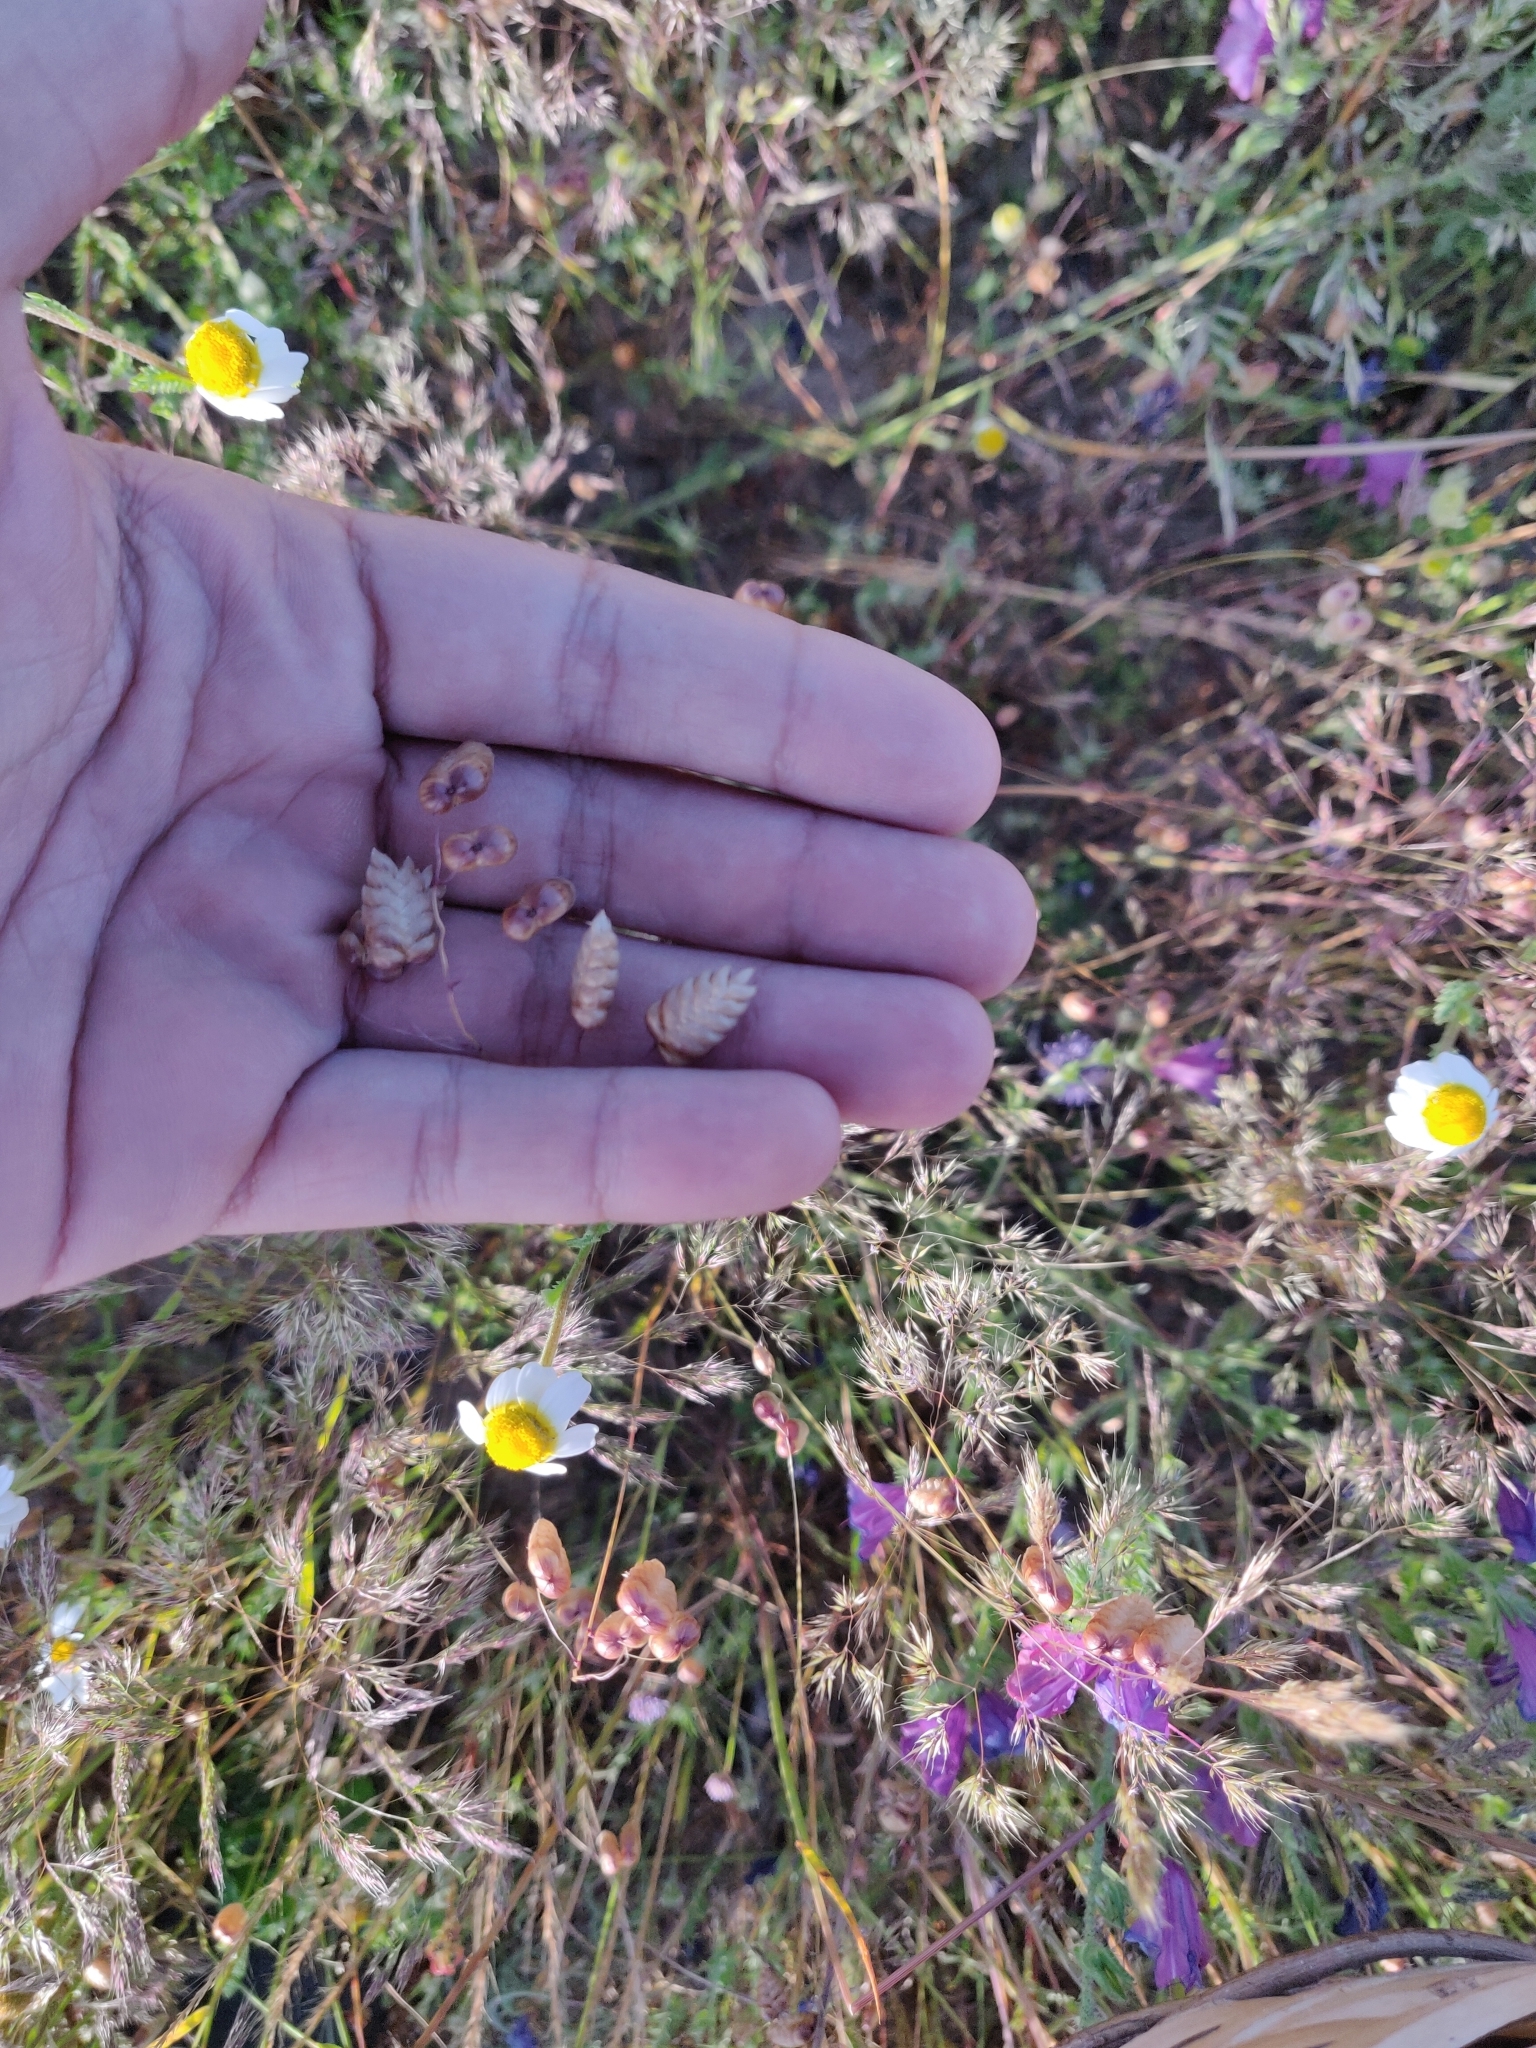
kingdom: Plantae
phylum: Tracheophyta
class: Liliopsida
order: Poales
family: Poaceae
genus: Briza
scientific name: Briza maxima
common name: Big quakinggrass
